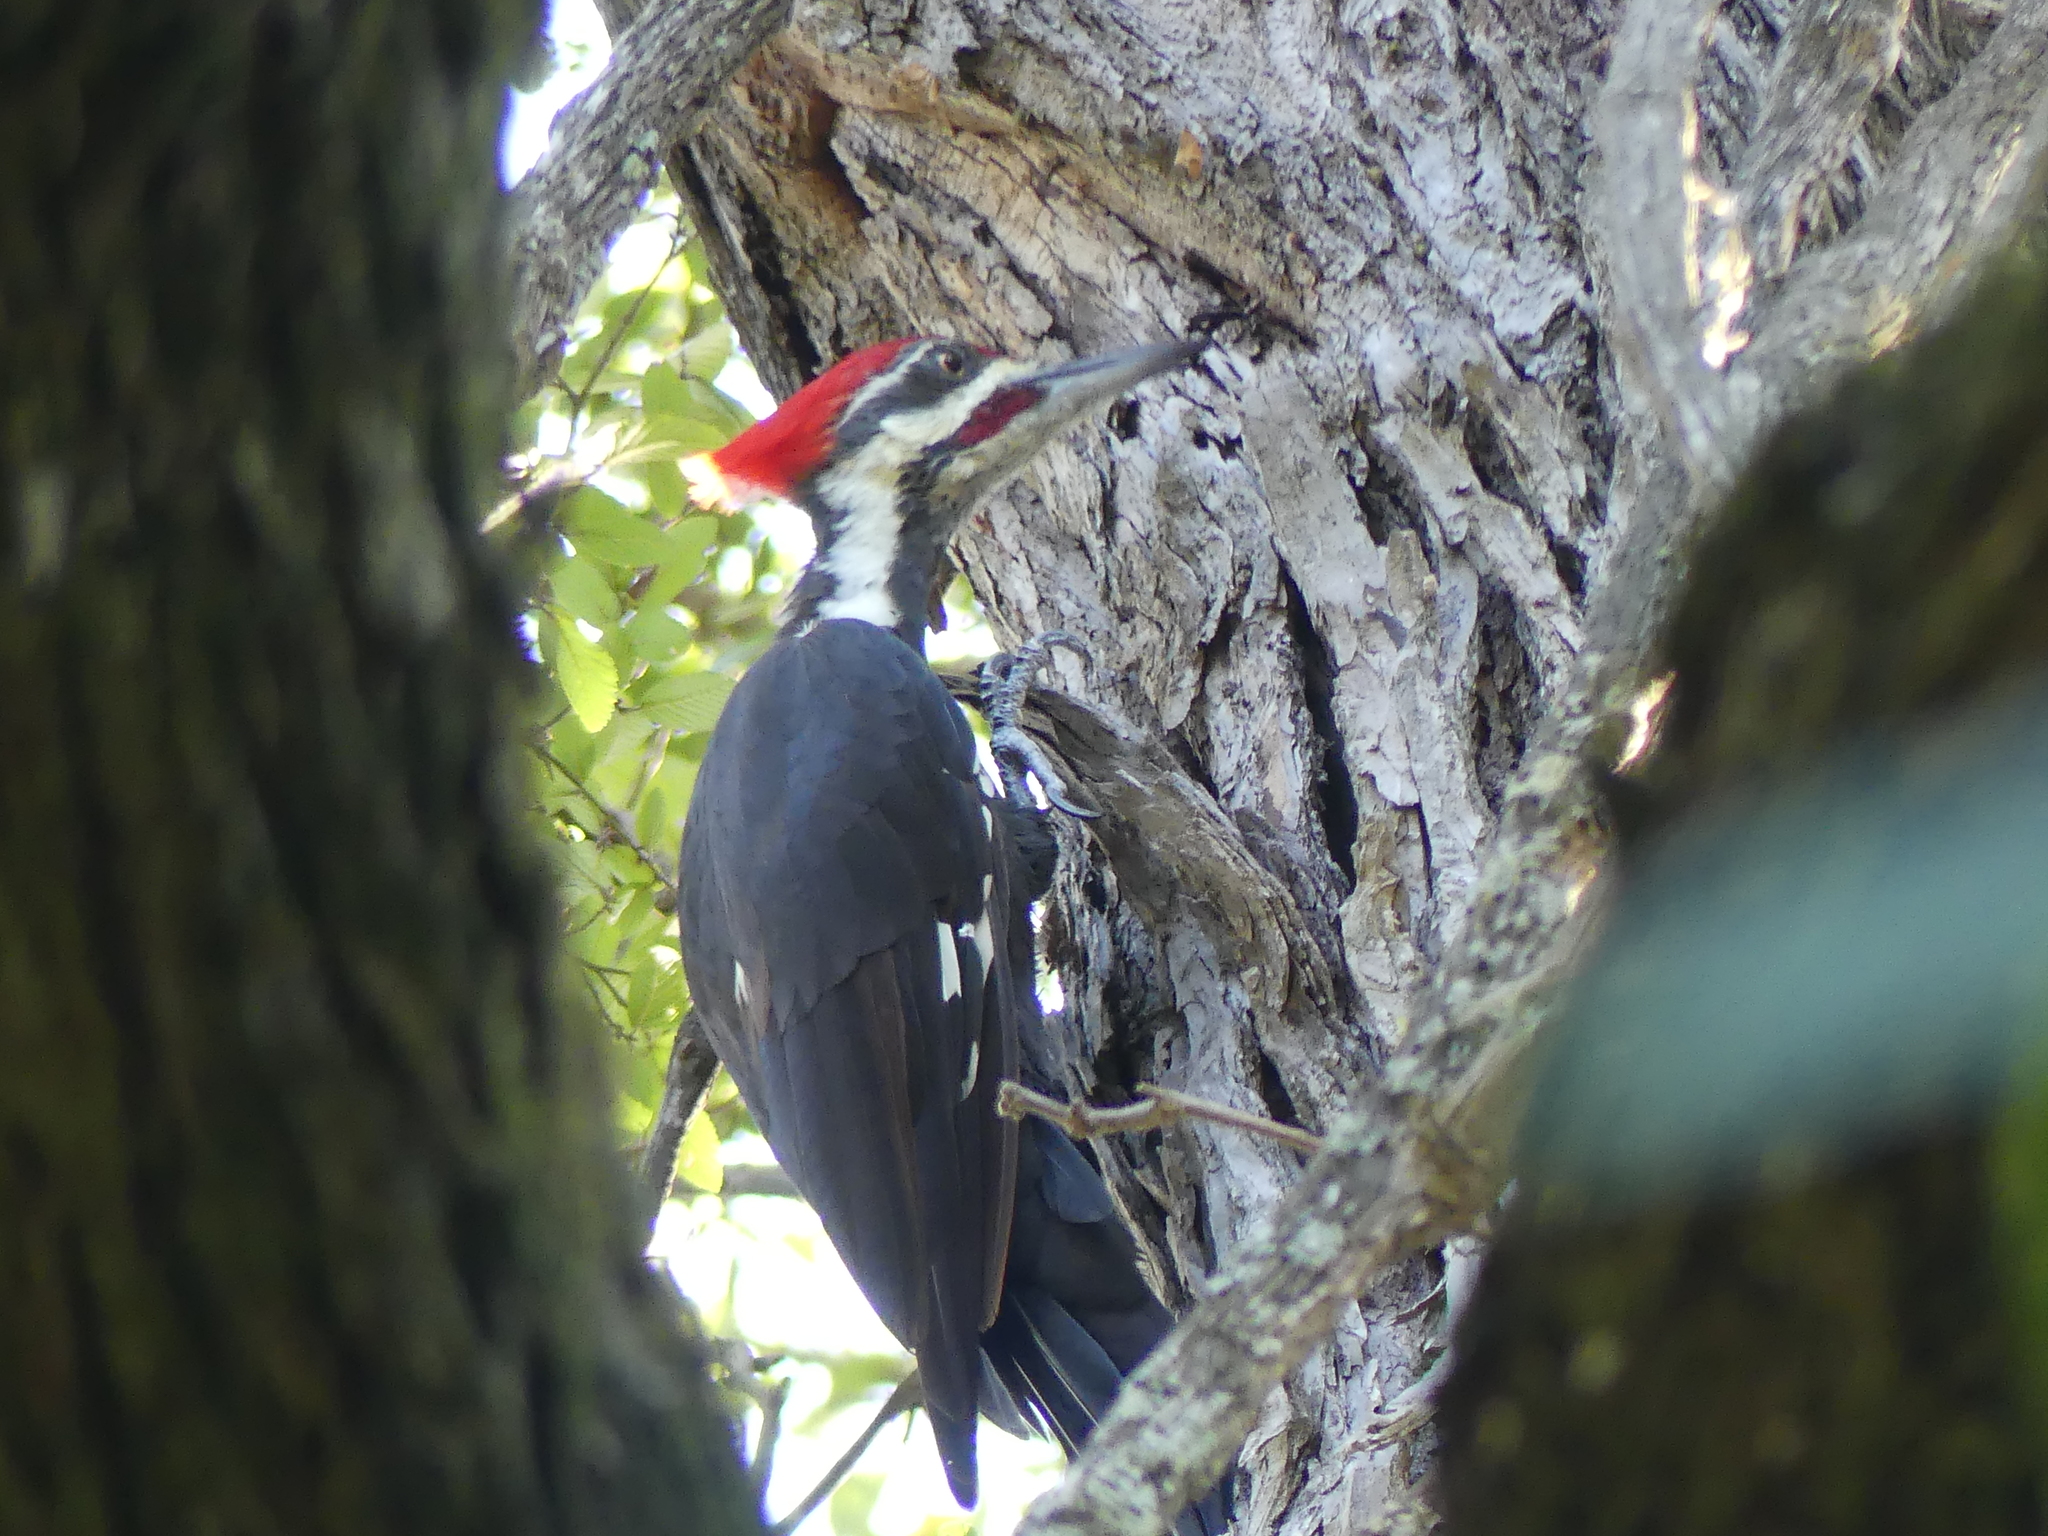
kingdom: Animalia
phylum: Chordata
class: Aves
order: Piciformes
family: Picidae
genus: Dryocopus
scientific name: Dryocopus pileatus
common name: Pileated woodpecker
